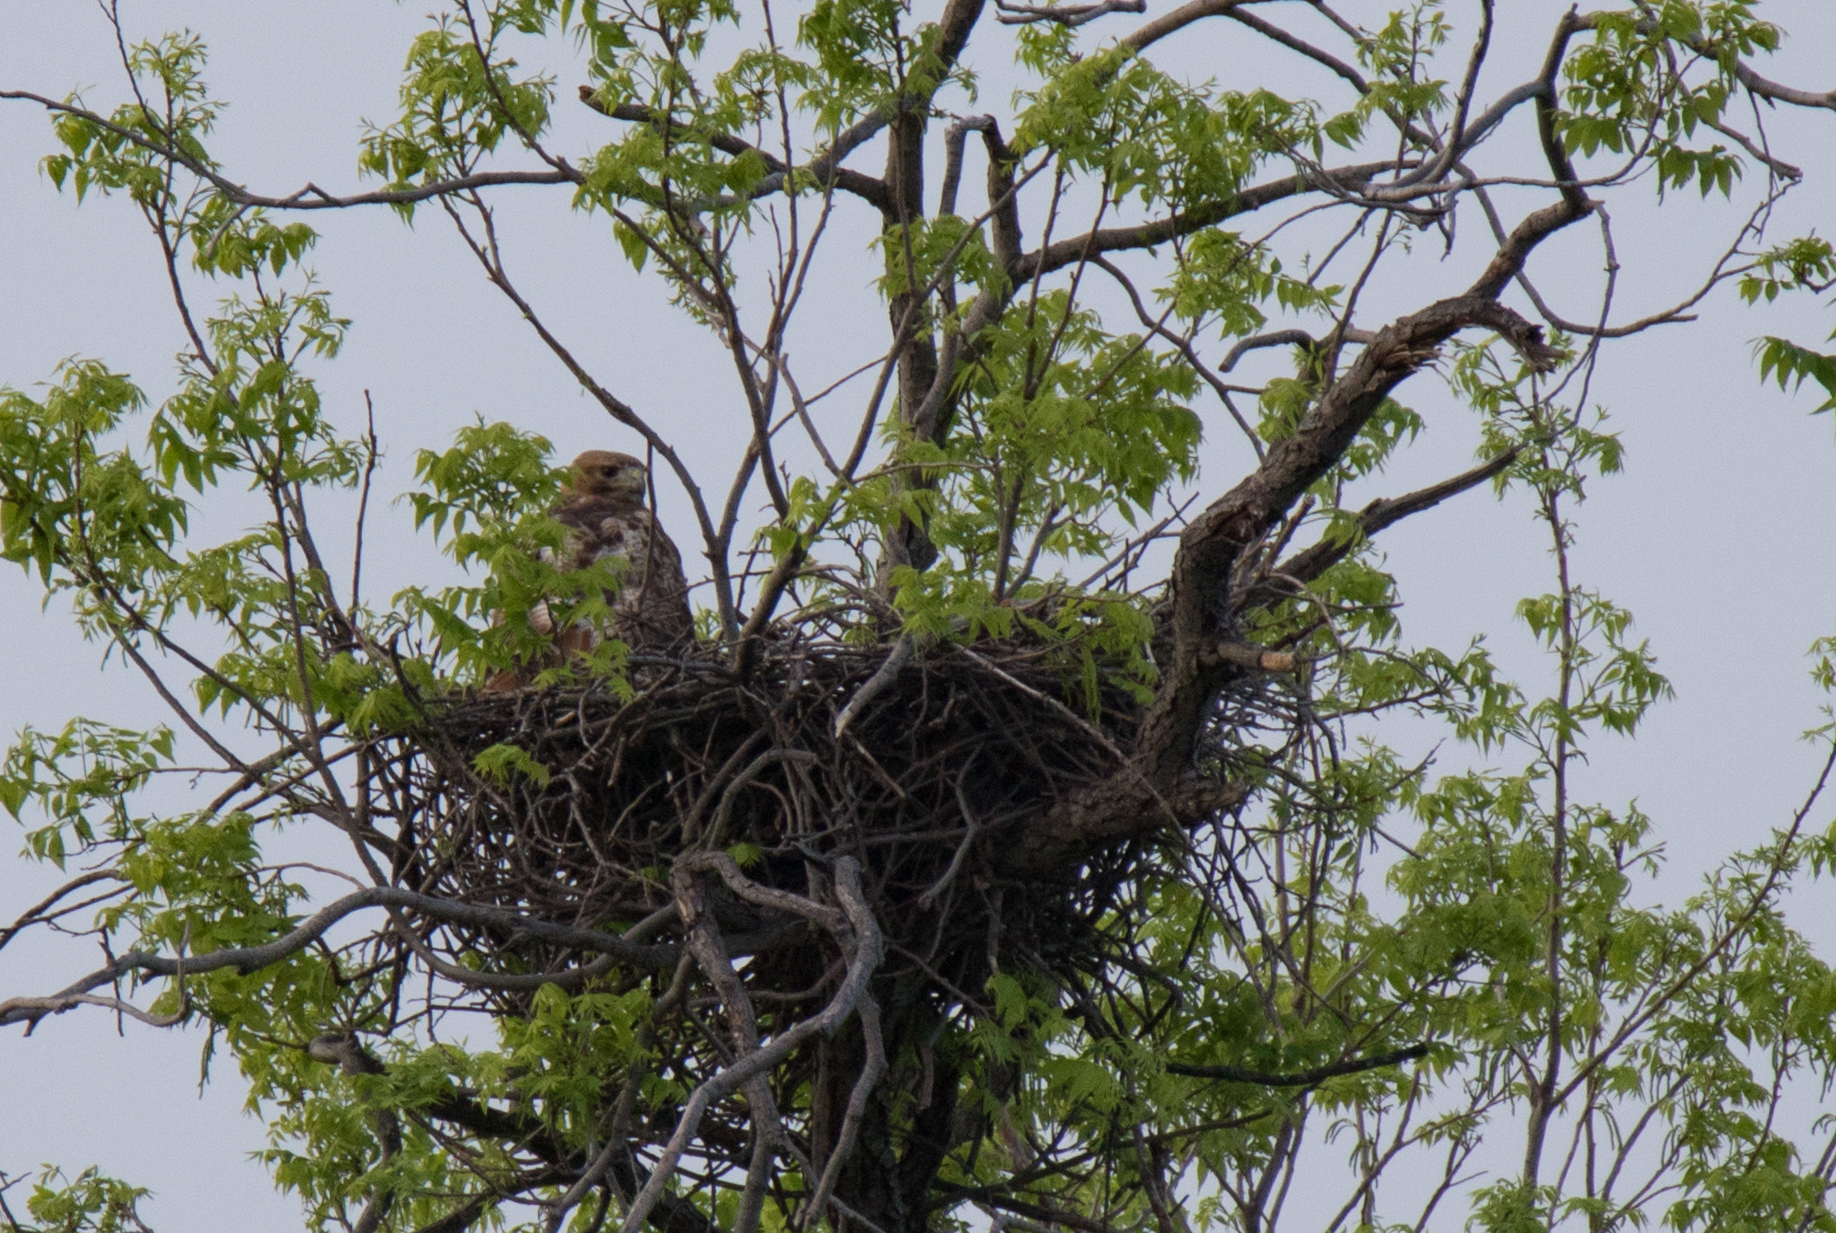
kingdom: Animalia
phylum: Chordata
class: Aves
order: Accipitriformes
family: Accipitridae
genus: Buteo
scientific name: Buteo jamaicensis
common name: Red-tailed hawk
